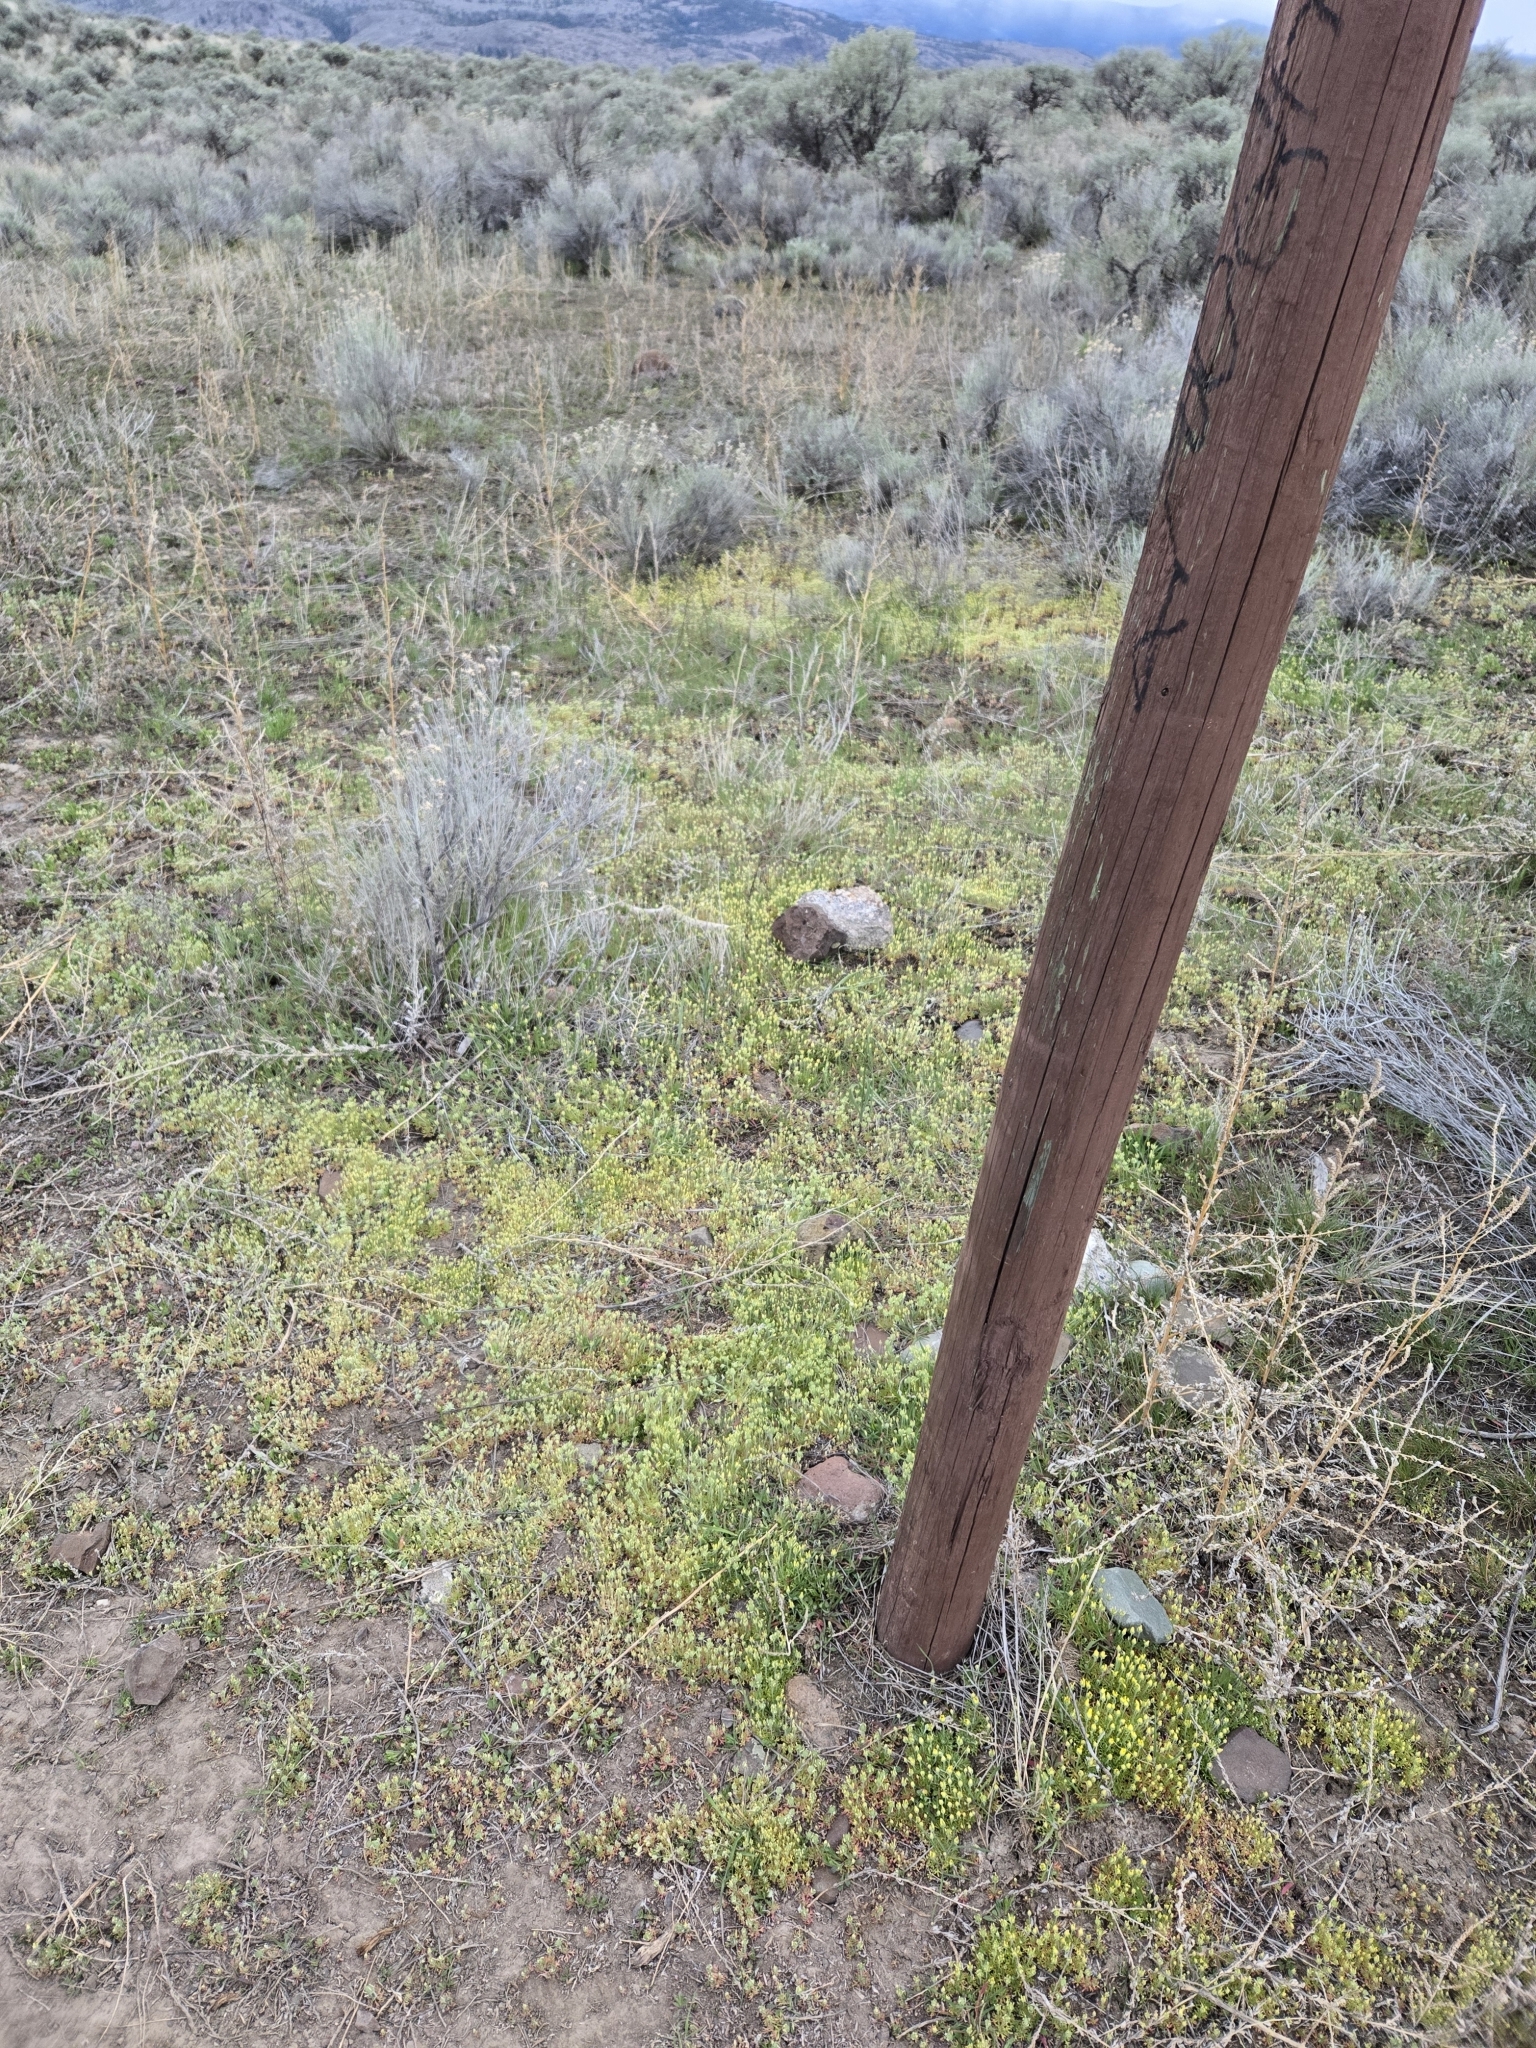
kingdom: Plantae
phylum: Tracheophyta
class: Magnoliopsida
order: Ranunculales
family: Ranunculaceae
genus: Ceratocephala
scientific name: Ceratocephala orthoceras
